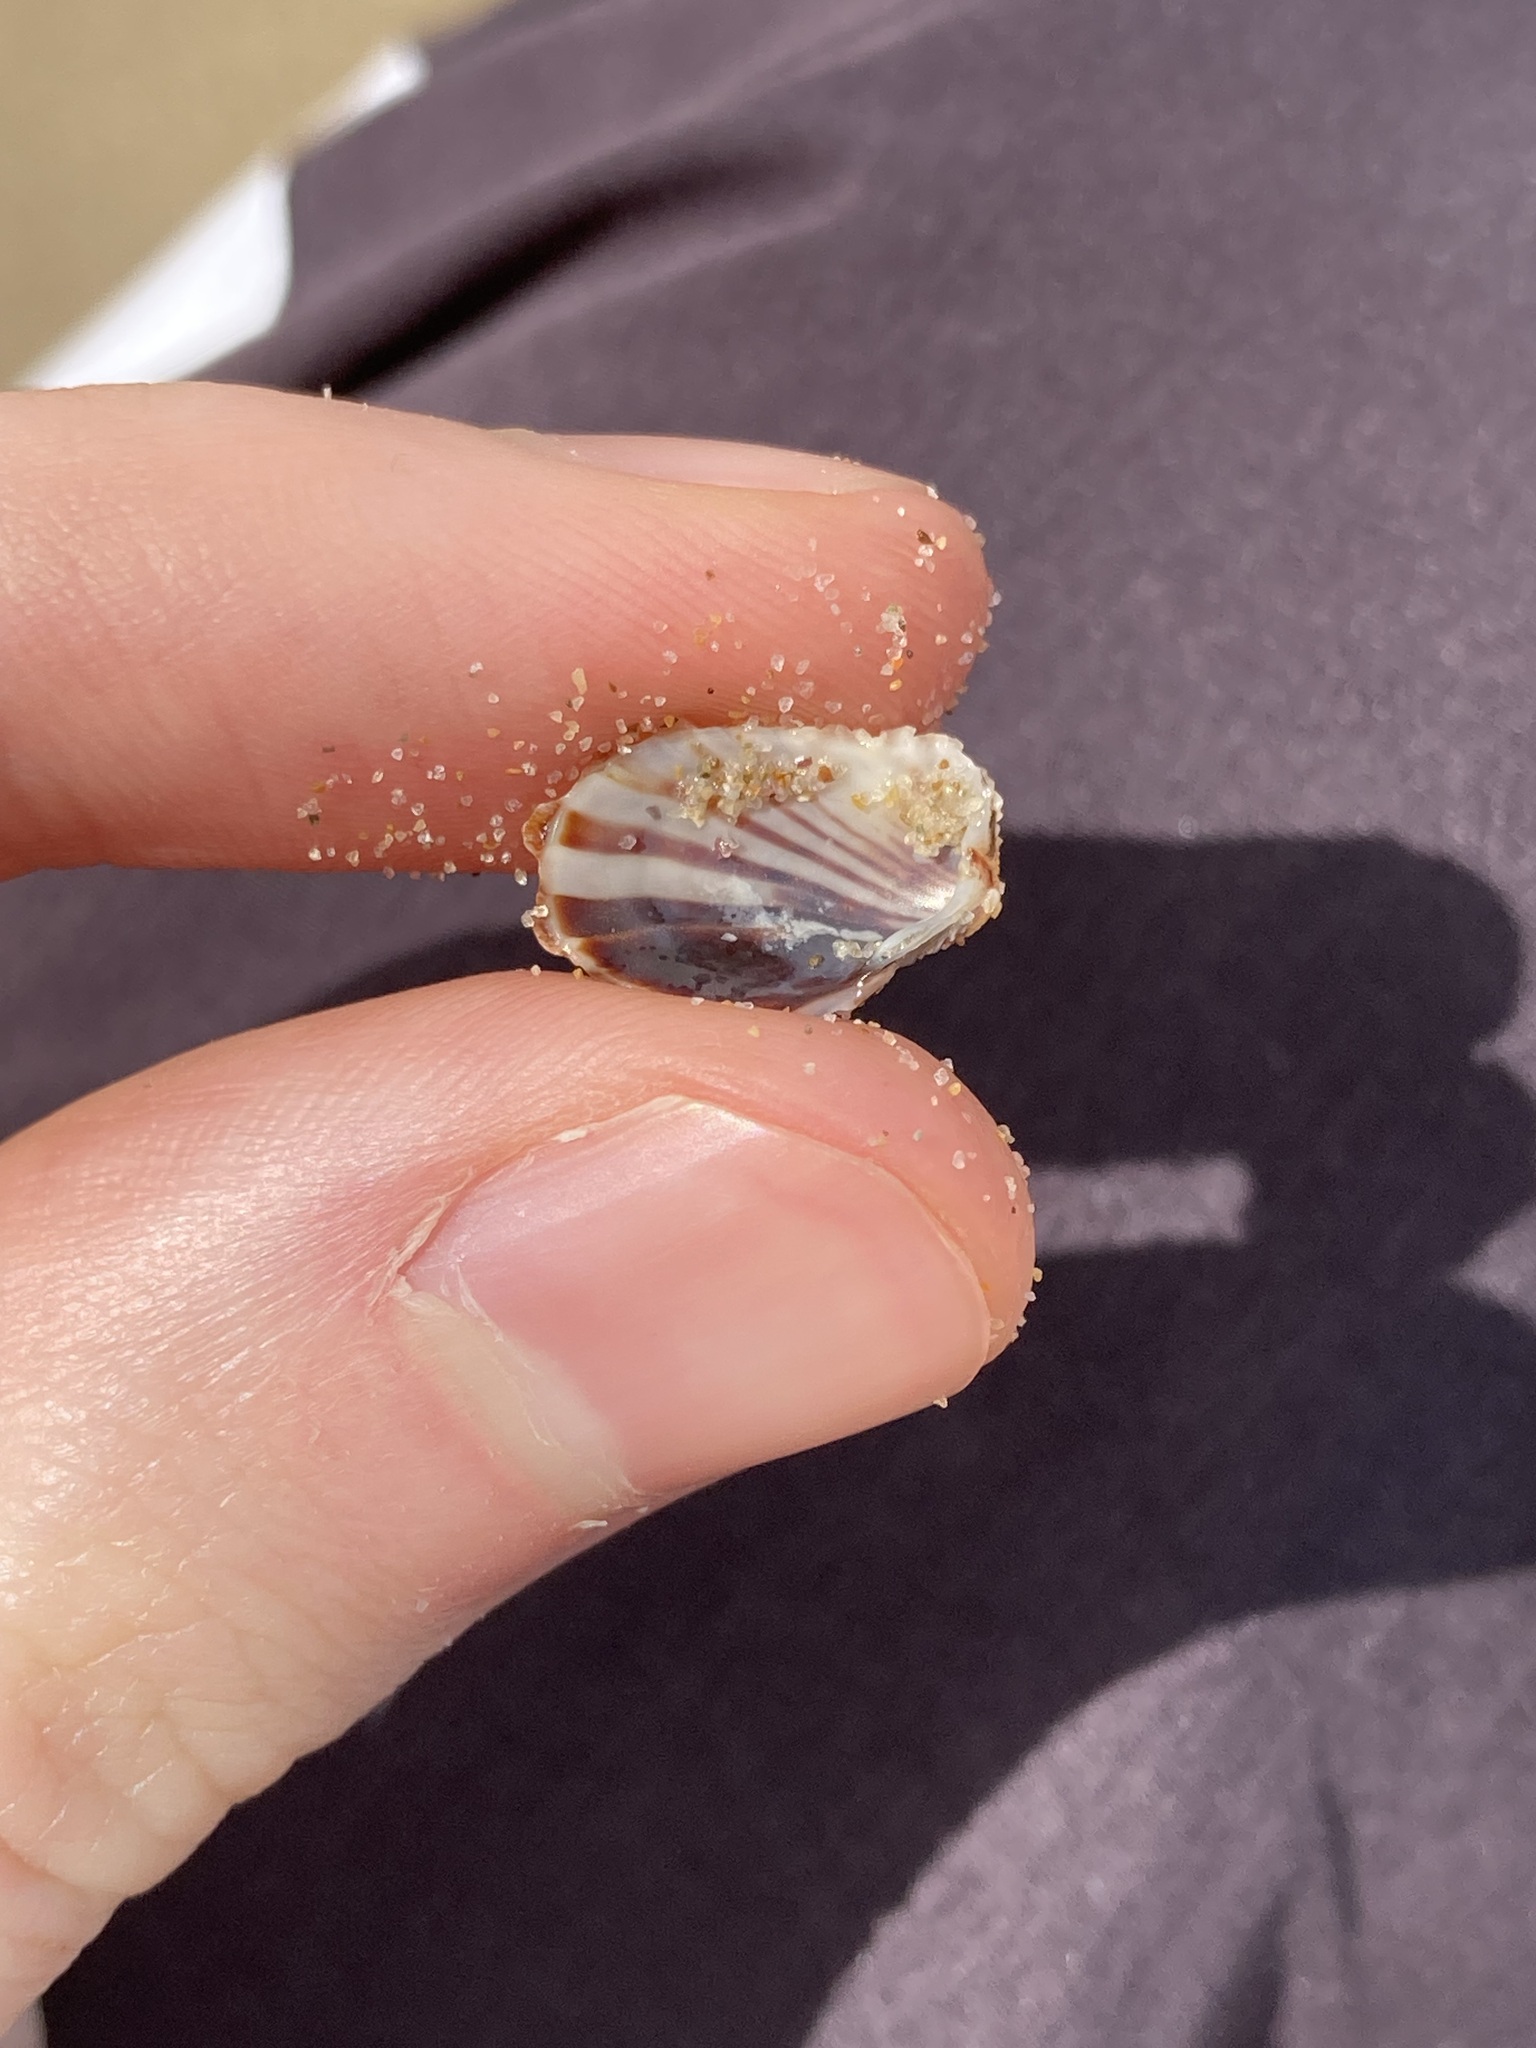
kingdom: Animalia
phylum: Mollusca
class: Bivalvia
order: Carditida
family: Carditidae
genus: Cardita
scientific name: Cardita aviculina
